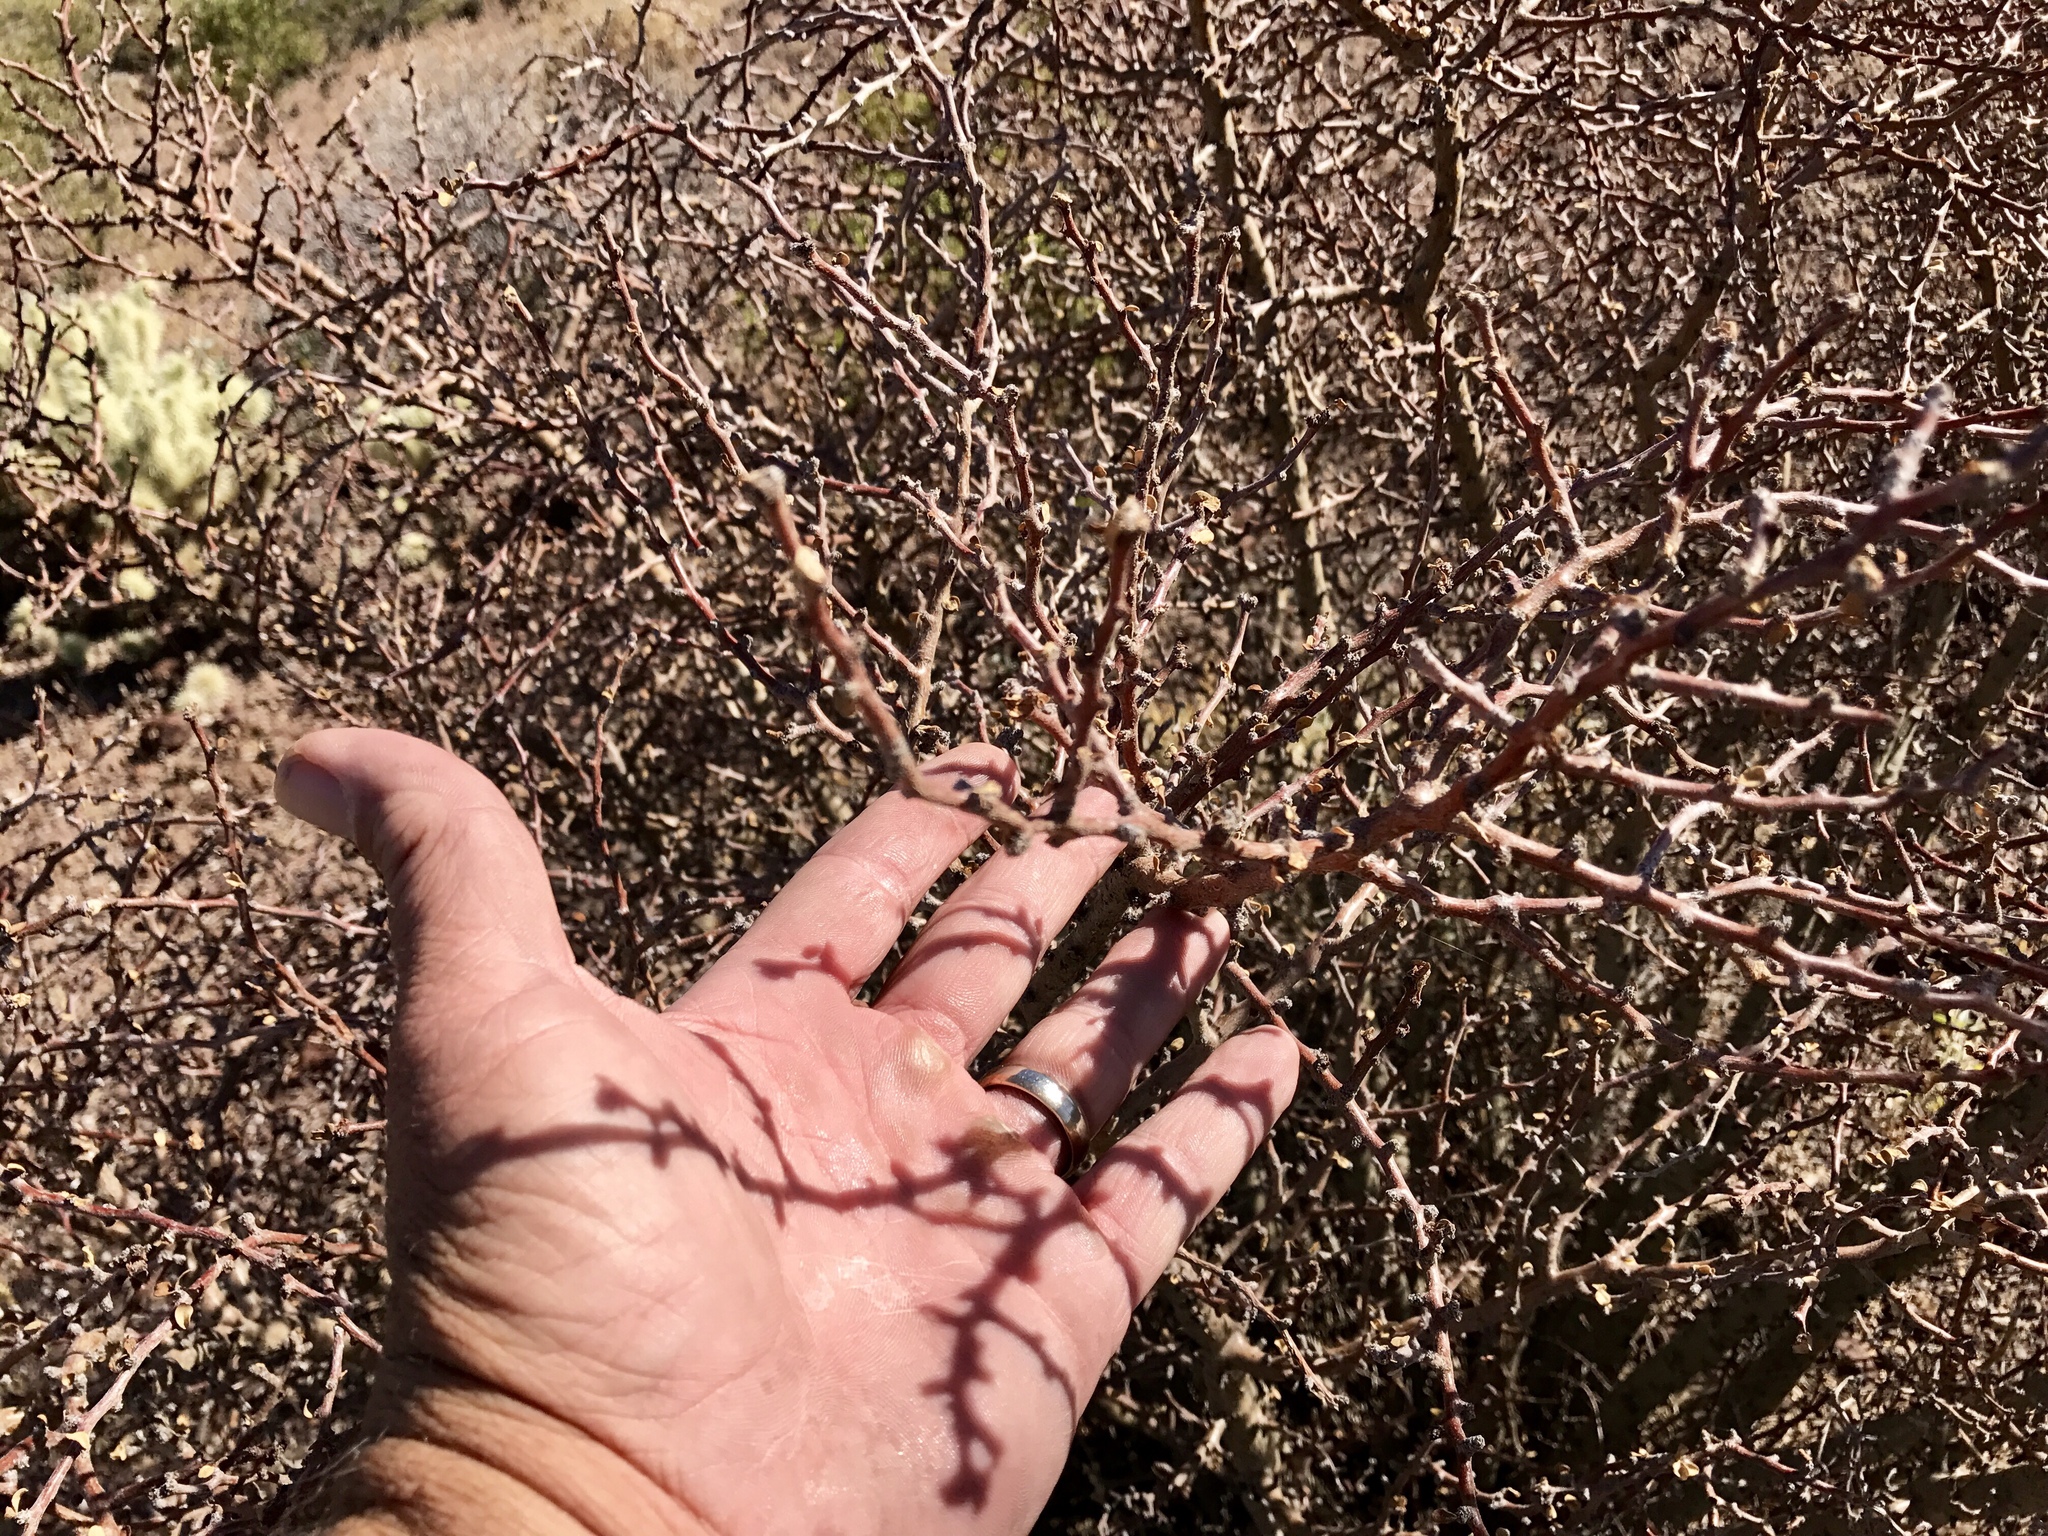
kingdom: Plantae
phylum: Tracheophyta
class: Magnoliopsida
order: Malpighiales
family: Euphorbiaceae
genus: Jatropha
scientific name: Jatropha cuneata
